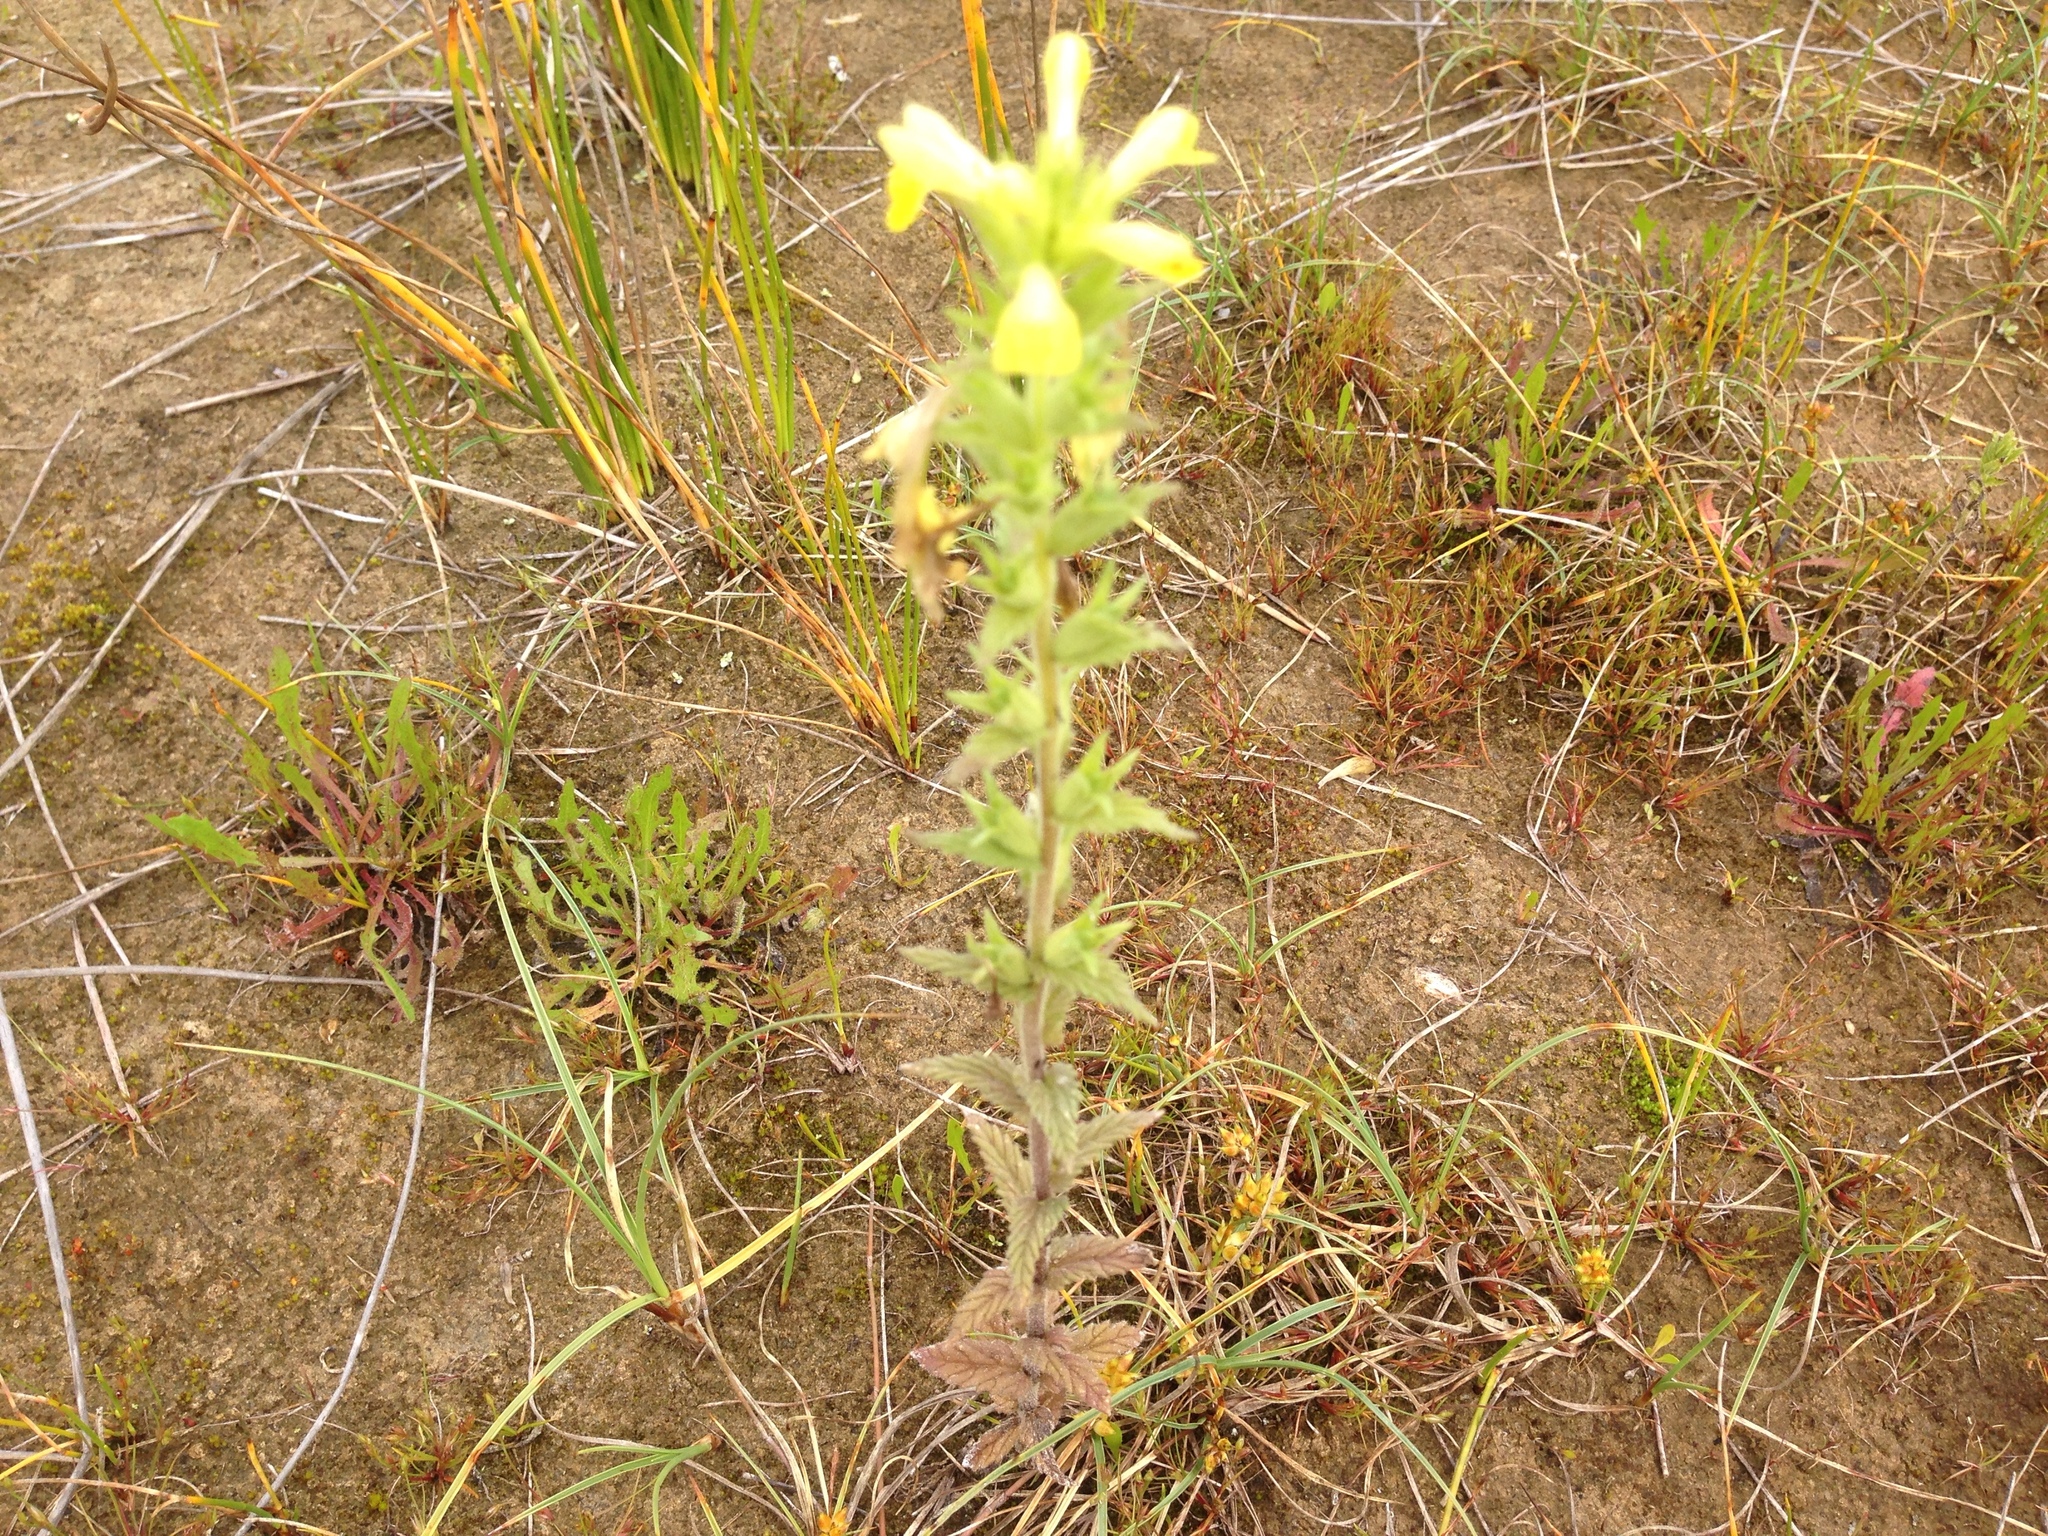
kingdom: Plantae
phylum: Tracheophyta
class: Magnoliopsida
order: Lamiales
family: Orobanchaceae
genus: Bellardia
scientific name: Bellardia viscosa
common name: Sticky parentucellia
